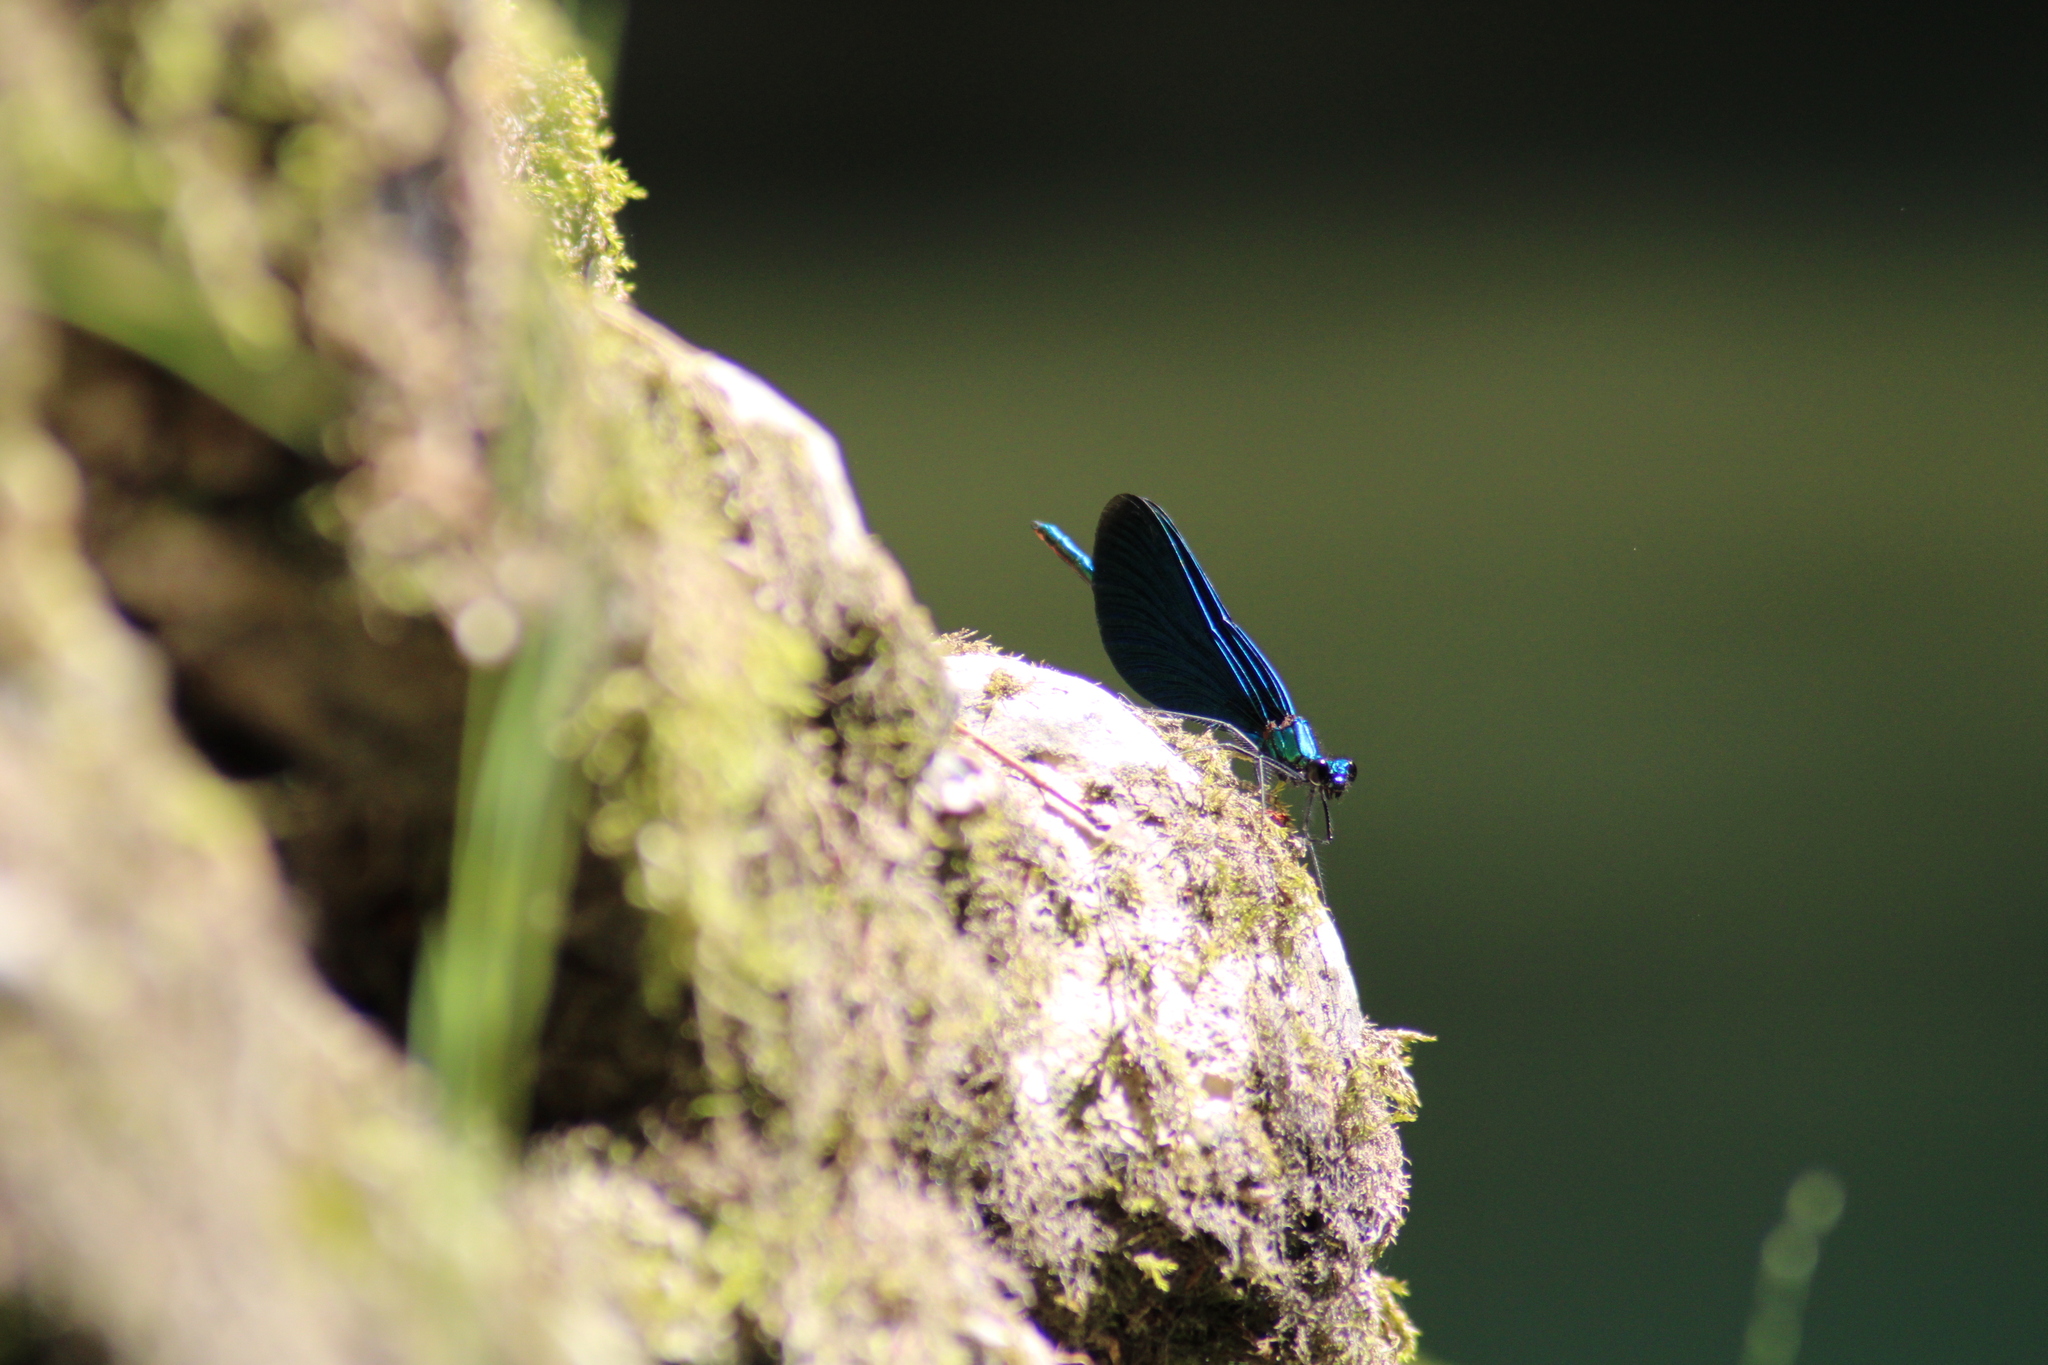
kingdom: Animalia
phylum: Arthropoda
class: Insecta
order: Odonata
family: Calopterygidae
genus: Calopteryx
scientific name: Calopteryx virgo
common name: Beautiful demoiselle
